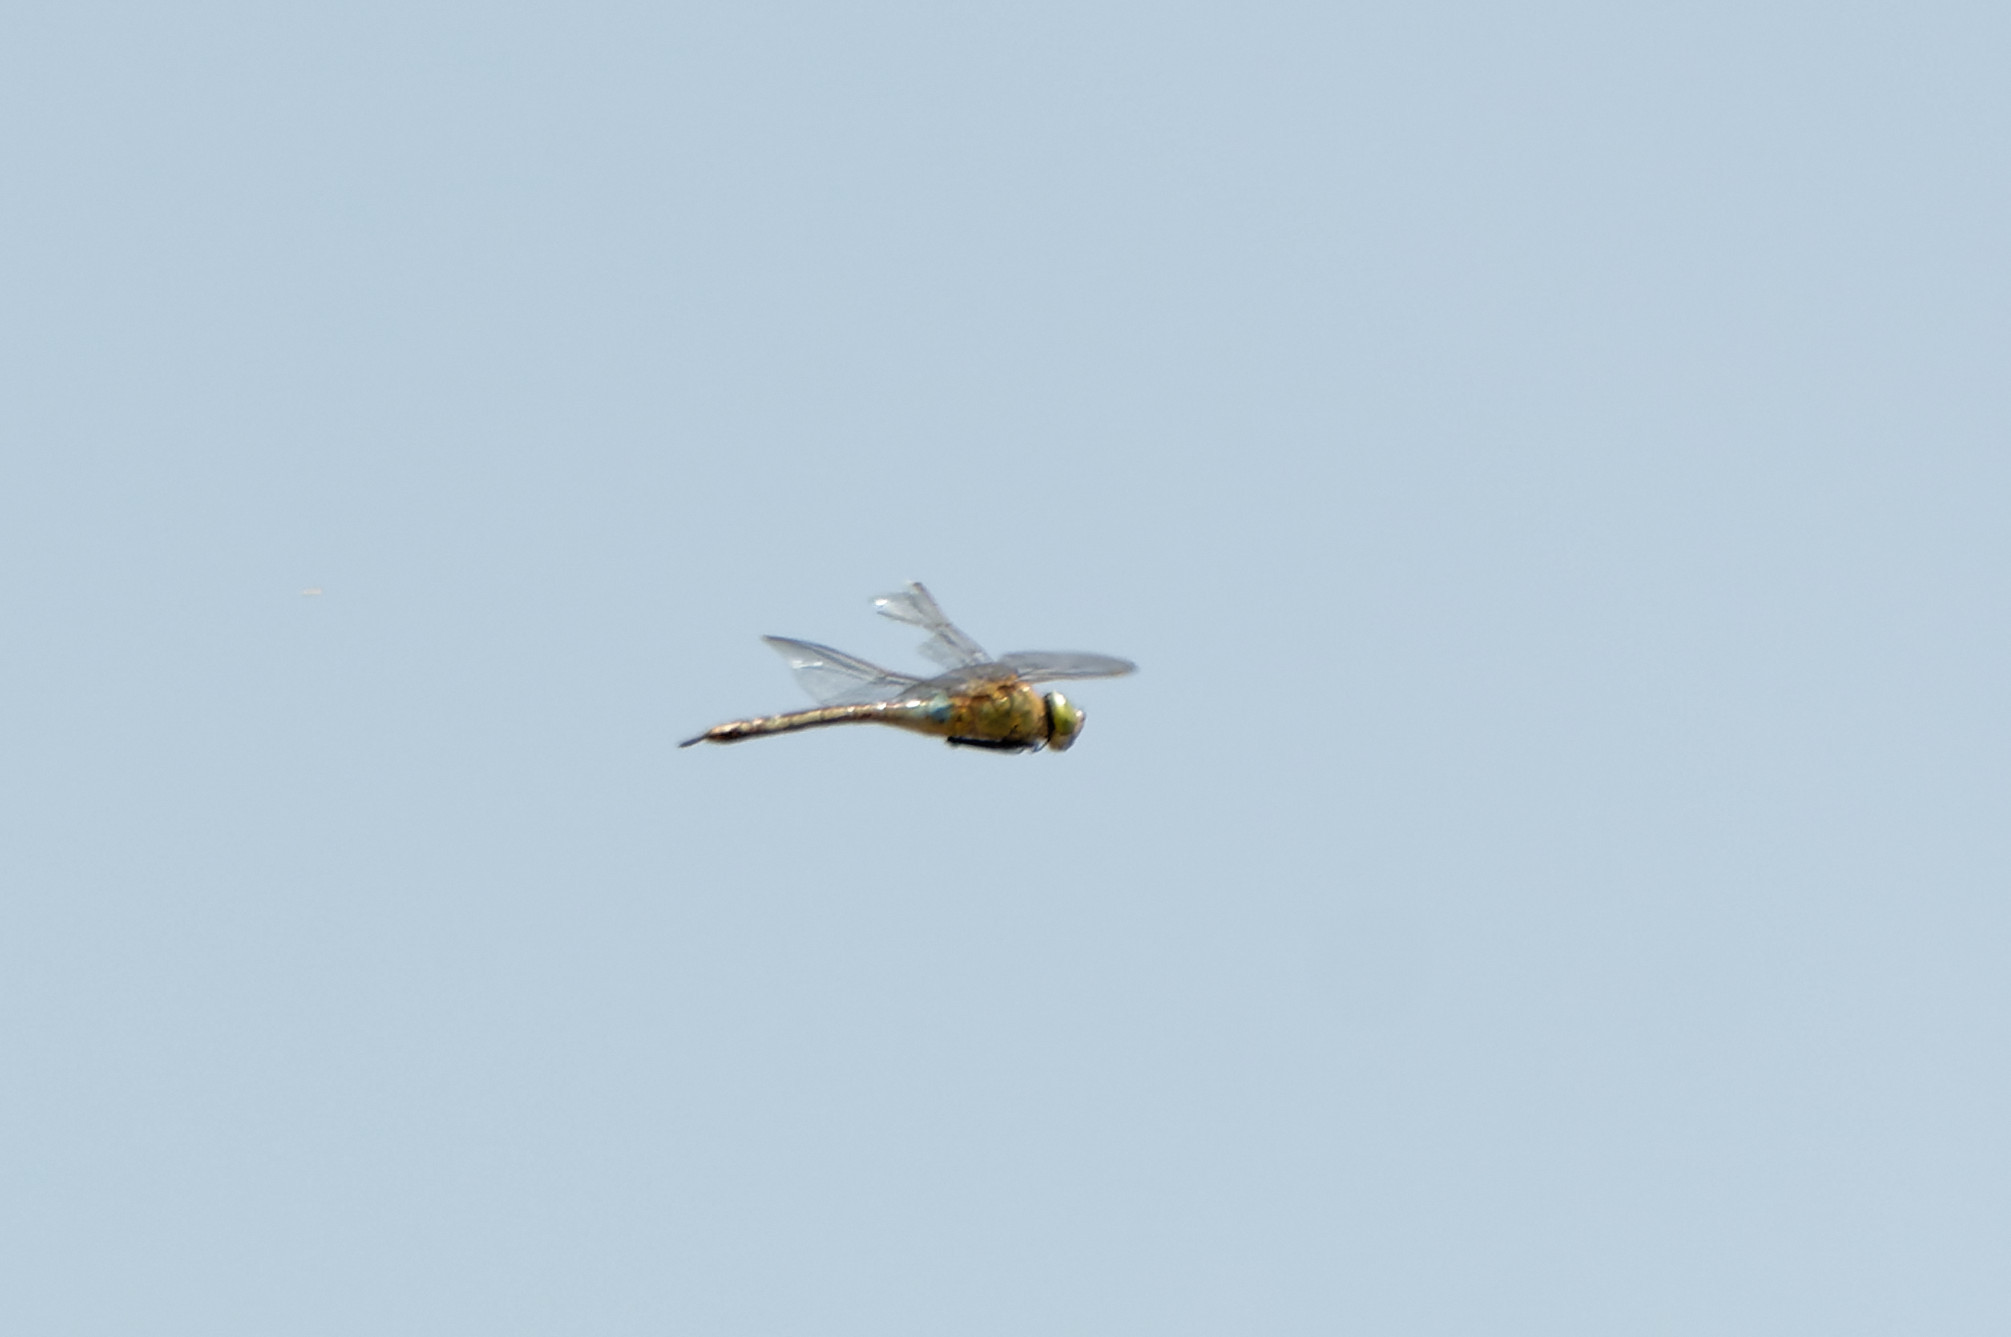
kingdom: Animalia
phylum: Arthropoda
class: Insecta
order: Odonata
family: Aeshnidae
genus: Anax
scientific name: Anax parthenope
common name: Lesser emperor
